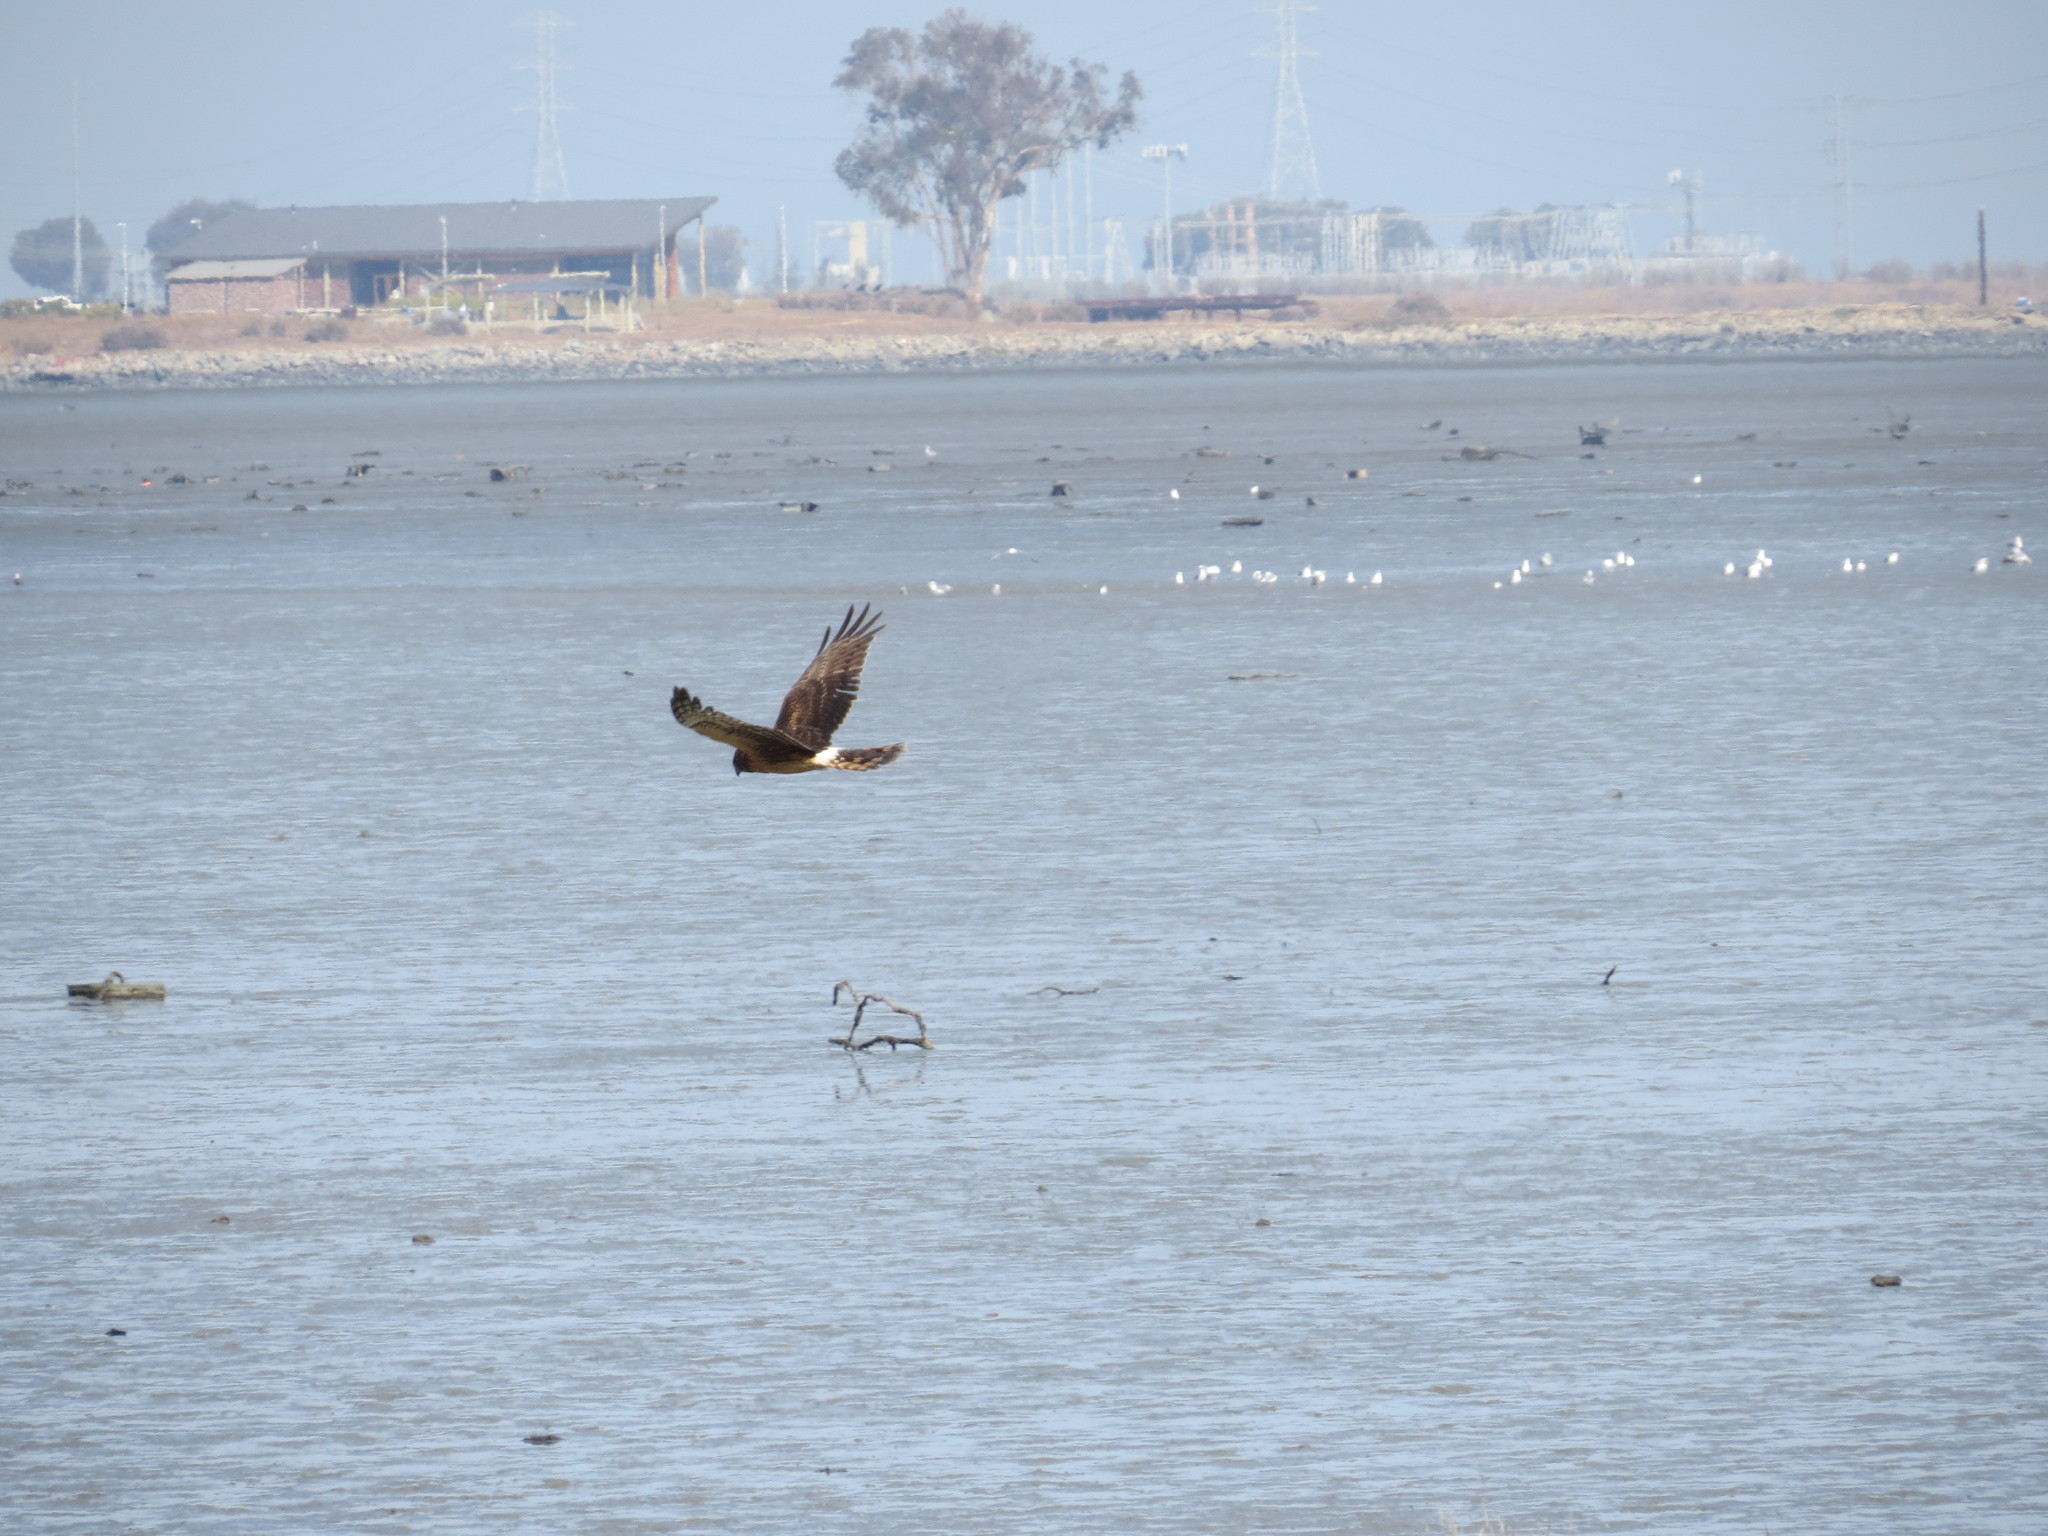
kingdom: Animalia
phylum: Chordata
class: Aves
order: Accipitriformes
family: Accipitridae
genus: Circus
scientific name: Circus cyaneus
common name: Hen harrier
